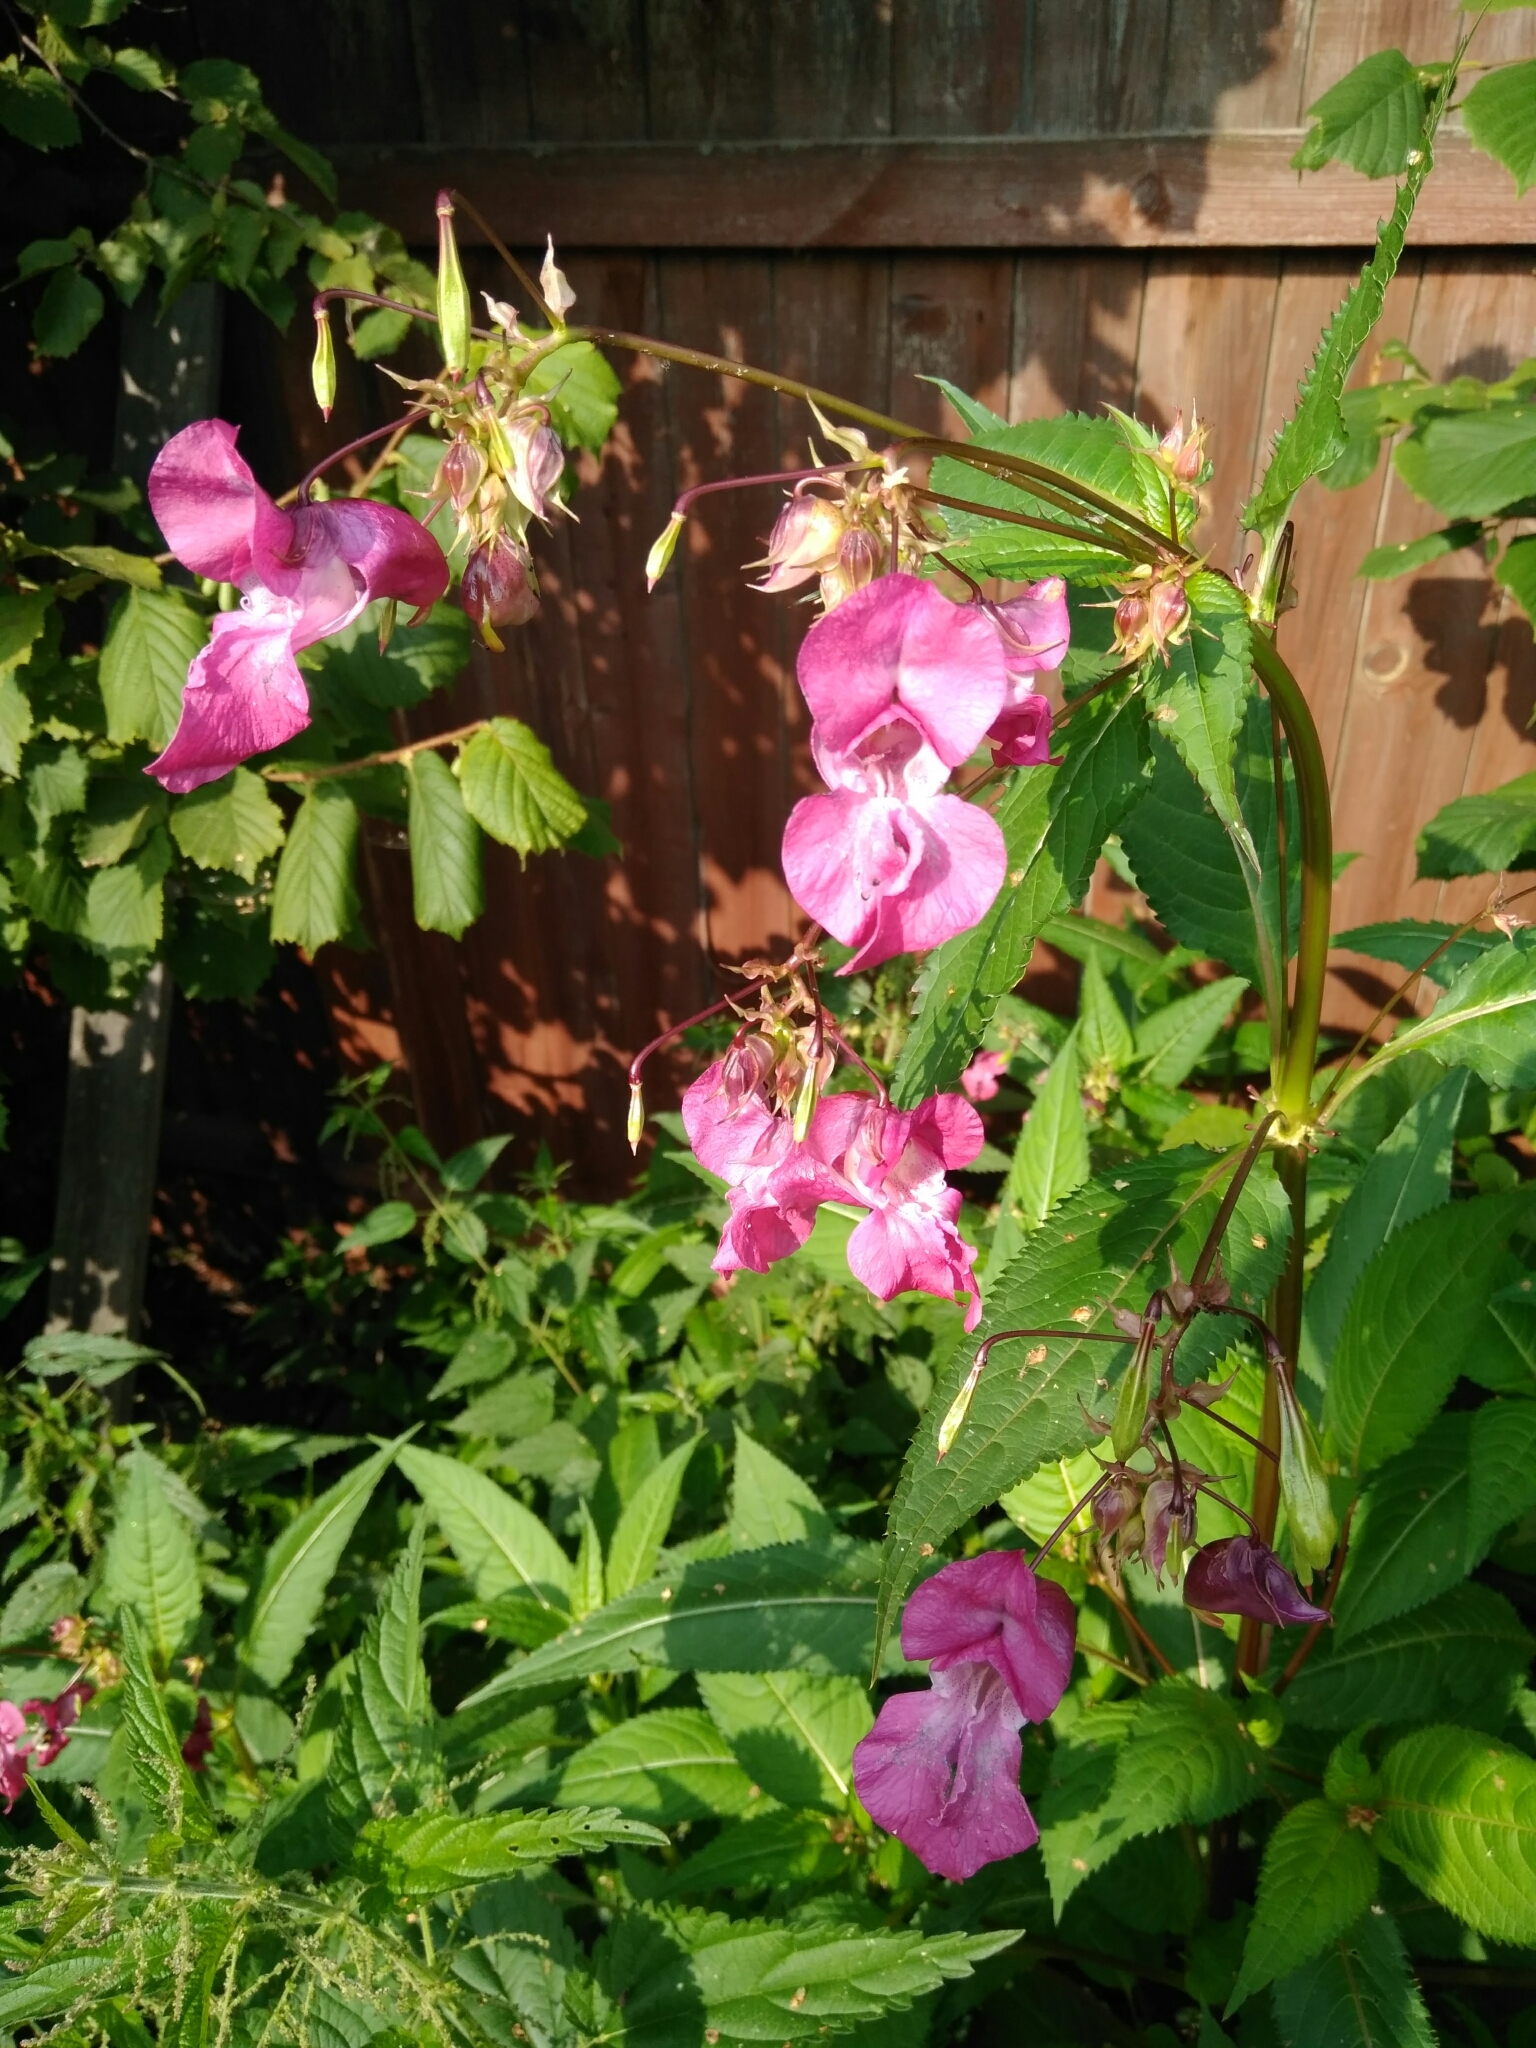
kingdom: Plantae
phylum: Tracheophyta
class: Magnoliopsida
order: Ericales
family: Balsaminaceae
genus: Impatiens
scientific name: Impatiens glandulifera
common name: Himalayan balsam
